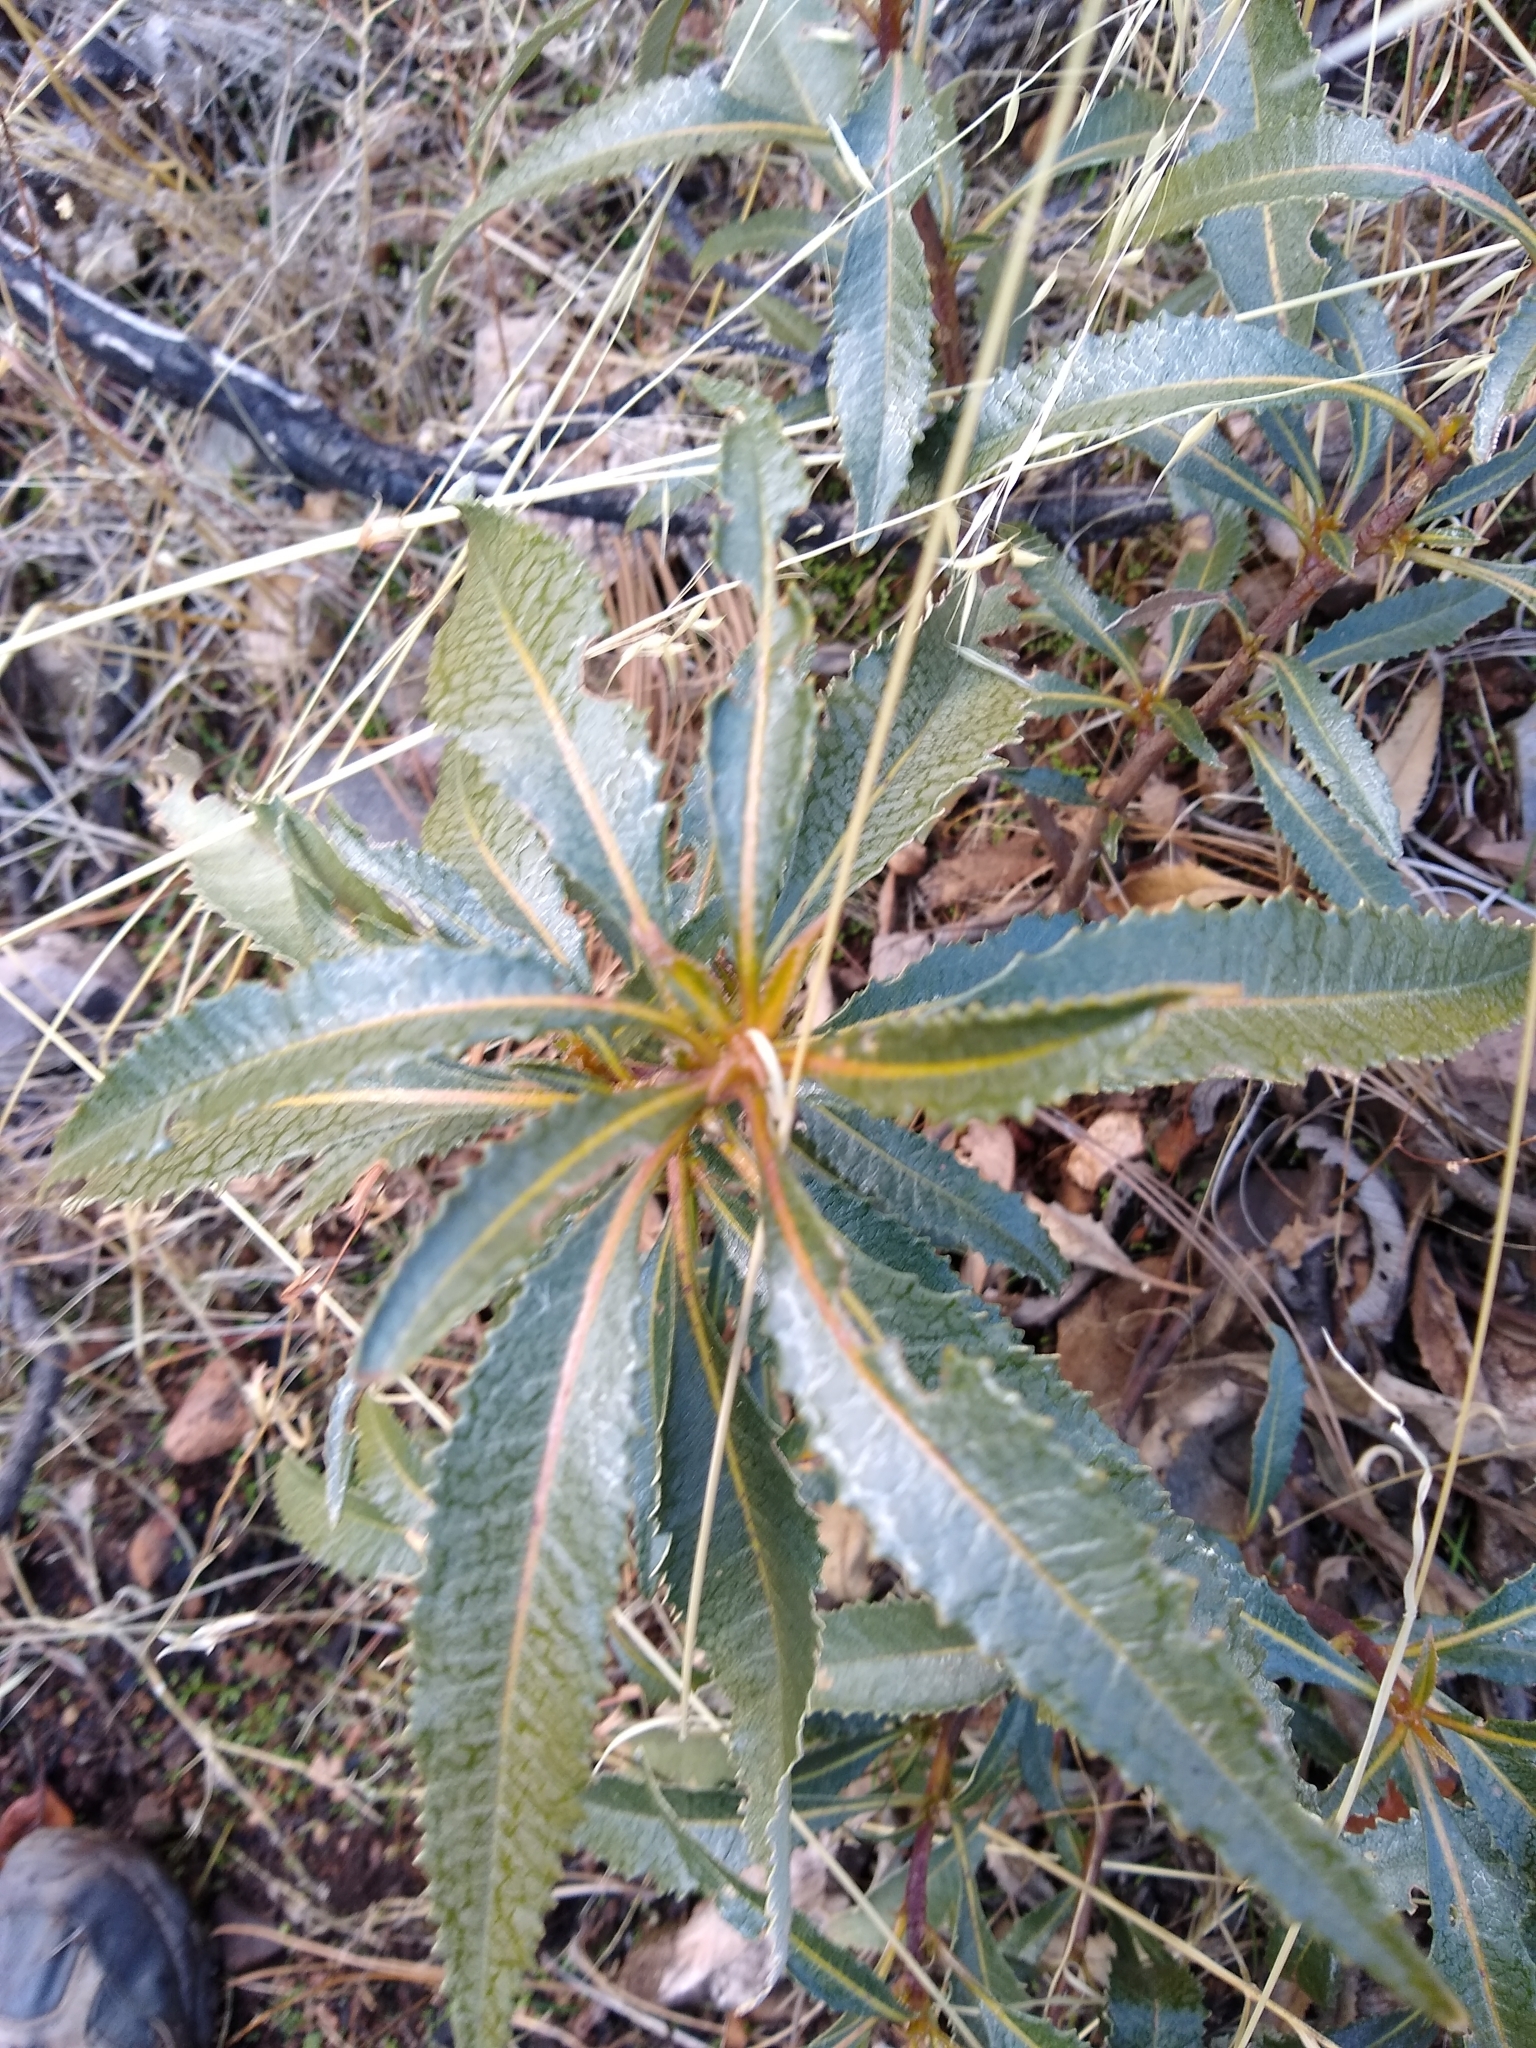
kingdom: Plantae
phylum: Tracheophyta
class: Magnoliopsida
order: Boraginales
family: Namaceae
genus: Eriodictyon
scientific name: Eriodictyon californicum
